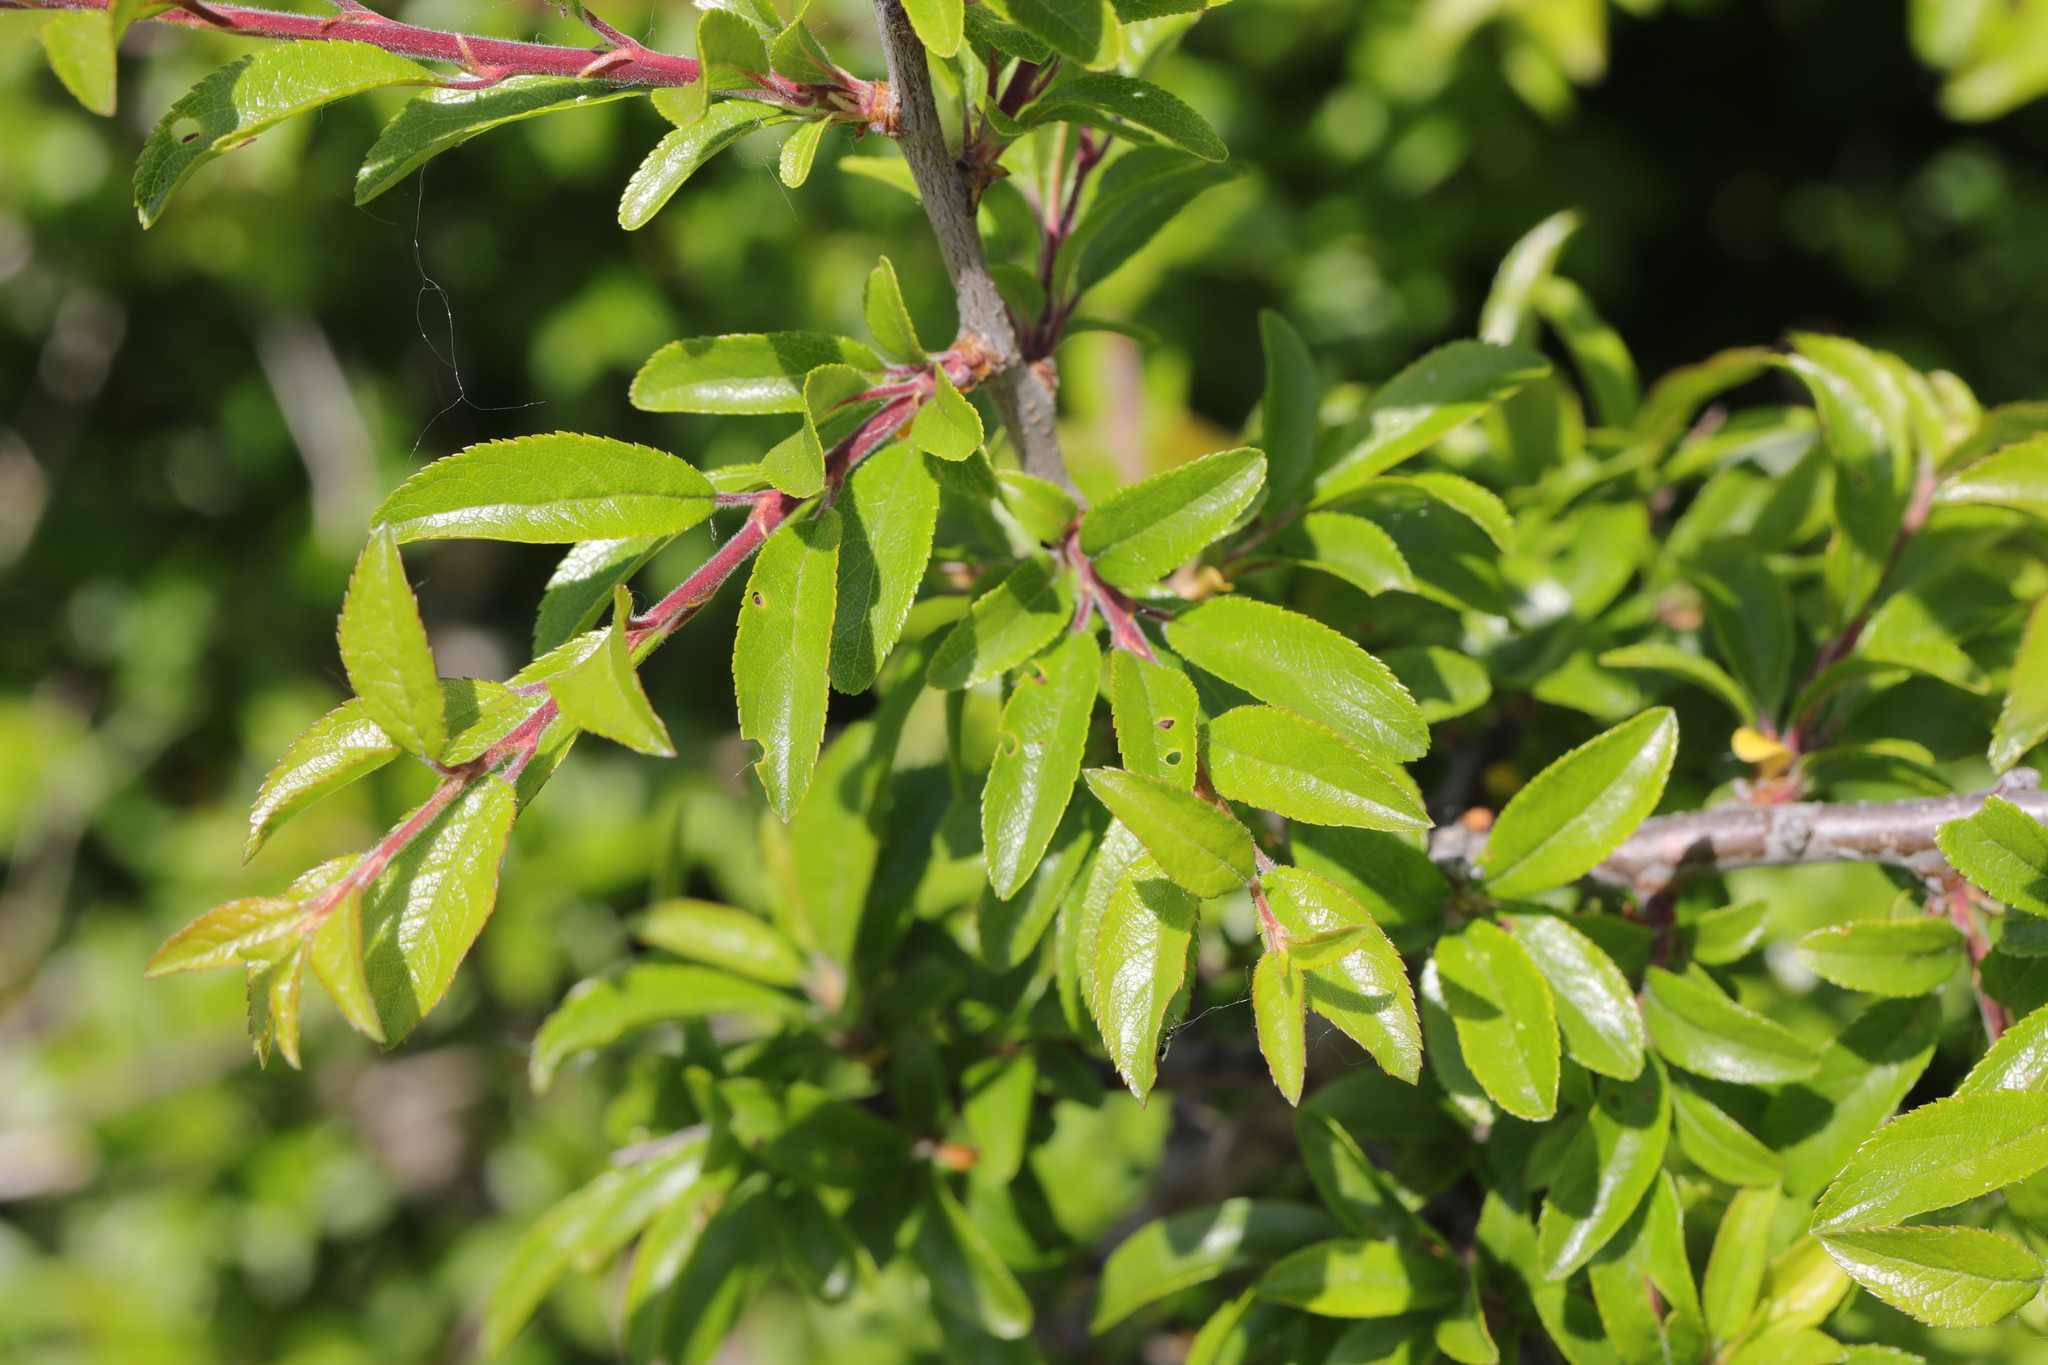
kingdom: Plantae
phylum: Tracheophyta
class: Magnoliopsida
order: Rosales
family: Rosaceae
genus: Prunus
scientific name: Prunus spinosa
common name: Blackthorn
